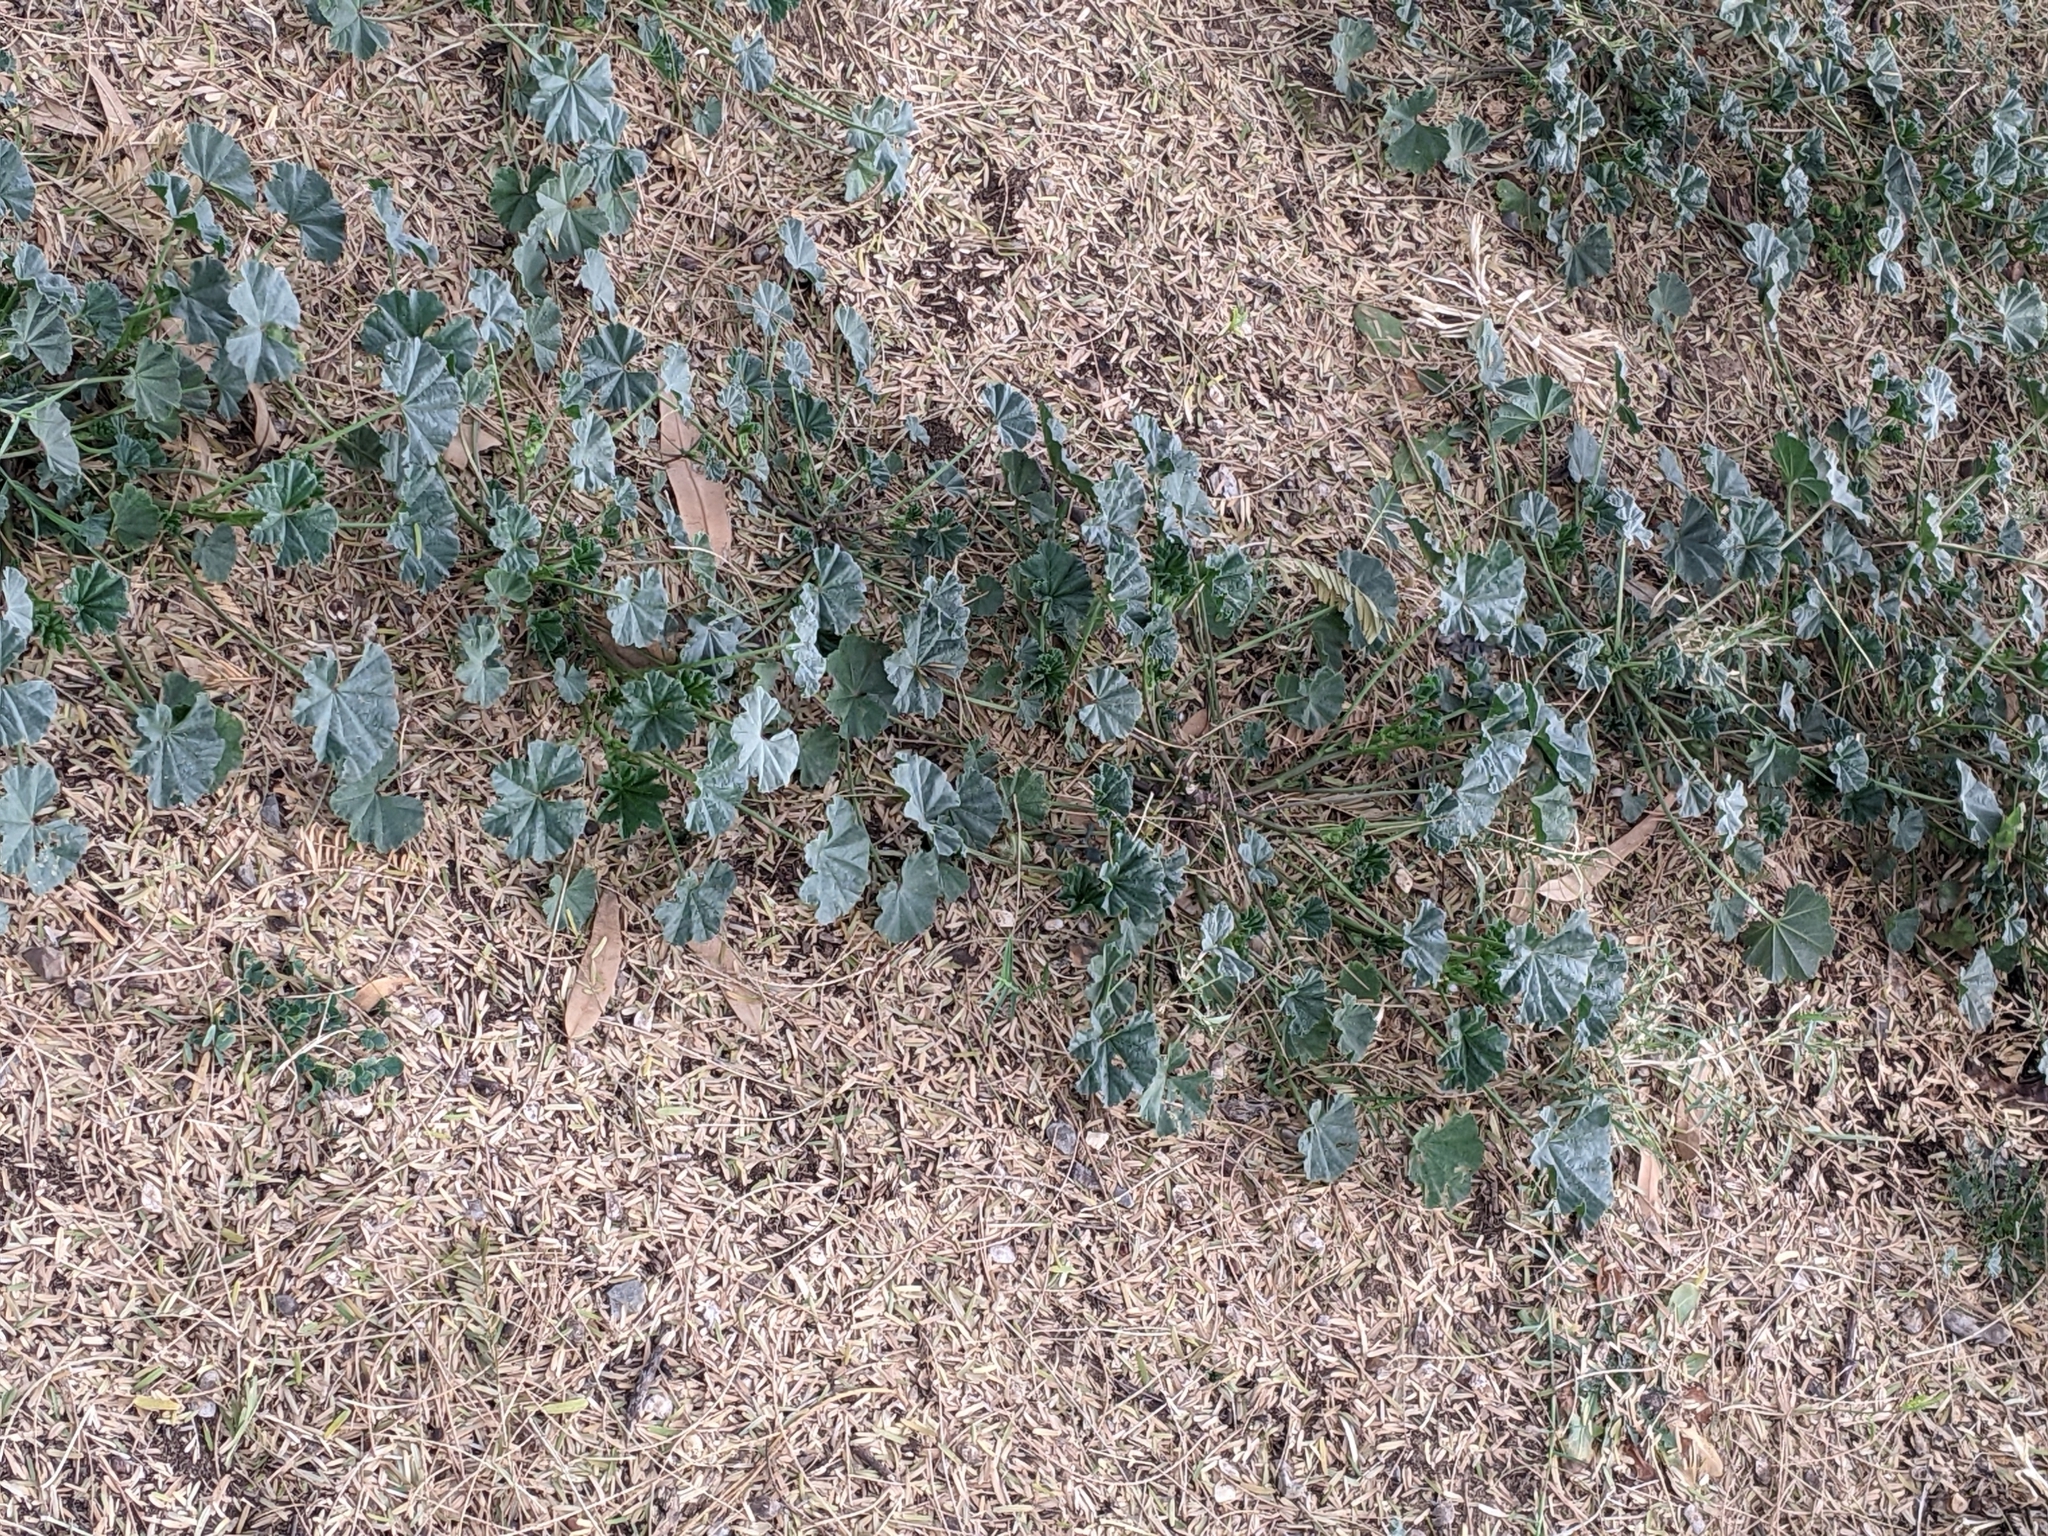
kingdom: Plantae
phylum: Tracheophyta
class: Magnoliopsida
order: Malvales
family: Malvaceae
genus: Malva
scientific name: Malva parviflora
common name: Least mallow
